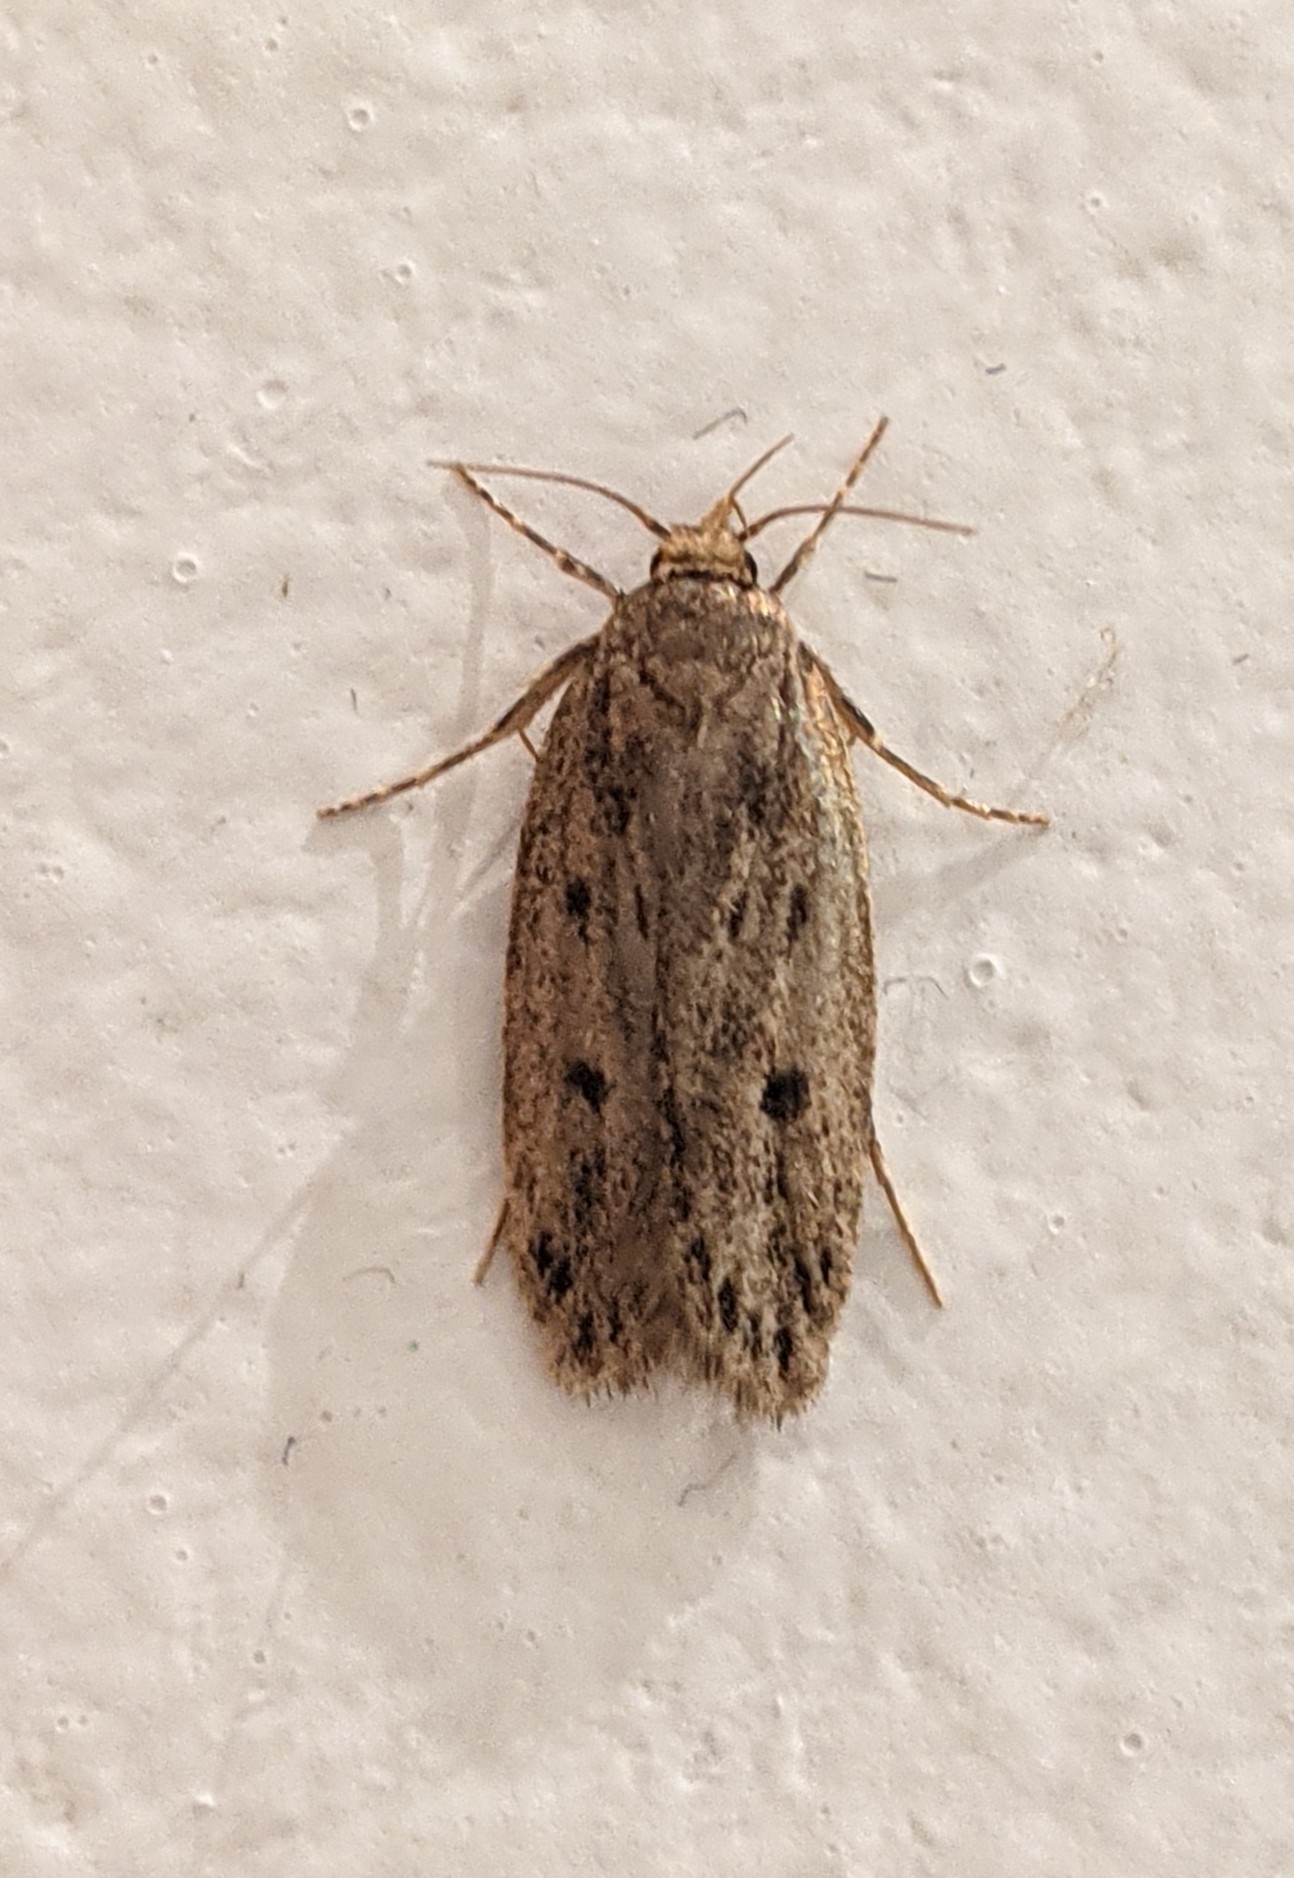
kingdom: Animalia
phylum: Arthropoda
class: Insecta
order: Lepidoptera
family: Oecophoridae
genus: Hofmannophila
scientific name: Hofmannophila pseudospretella
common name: Brown house moth
